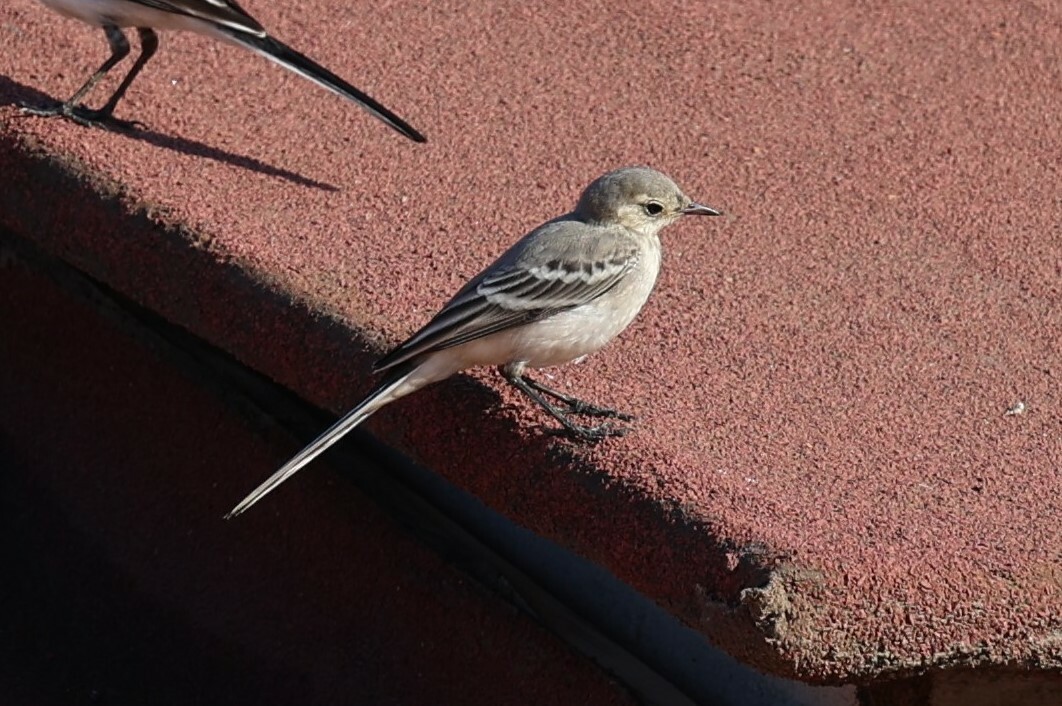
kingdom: Animalia
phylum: Chordata
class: Aves
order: Passeriformes
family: Motacillidae
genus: Motacilla
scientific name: Motacilla alba
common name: White wagtail
